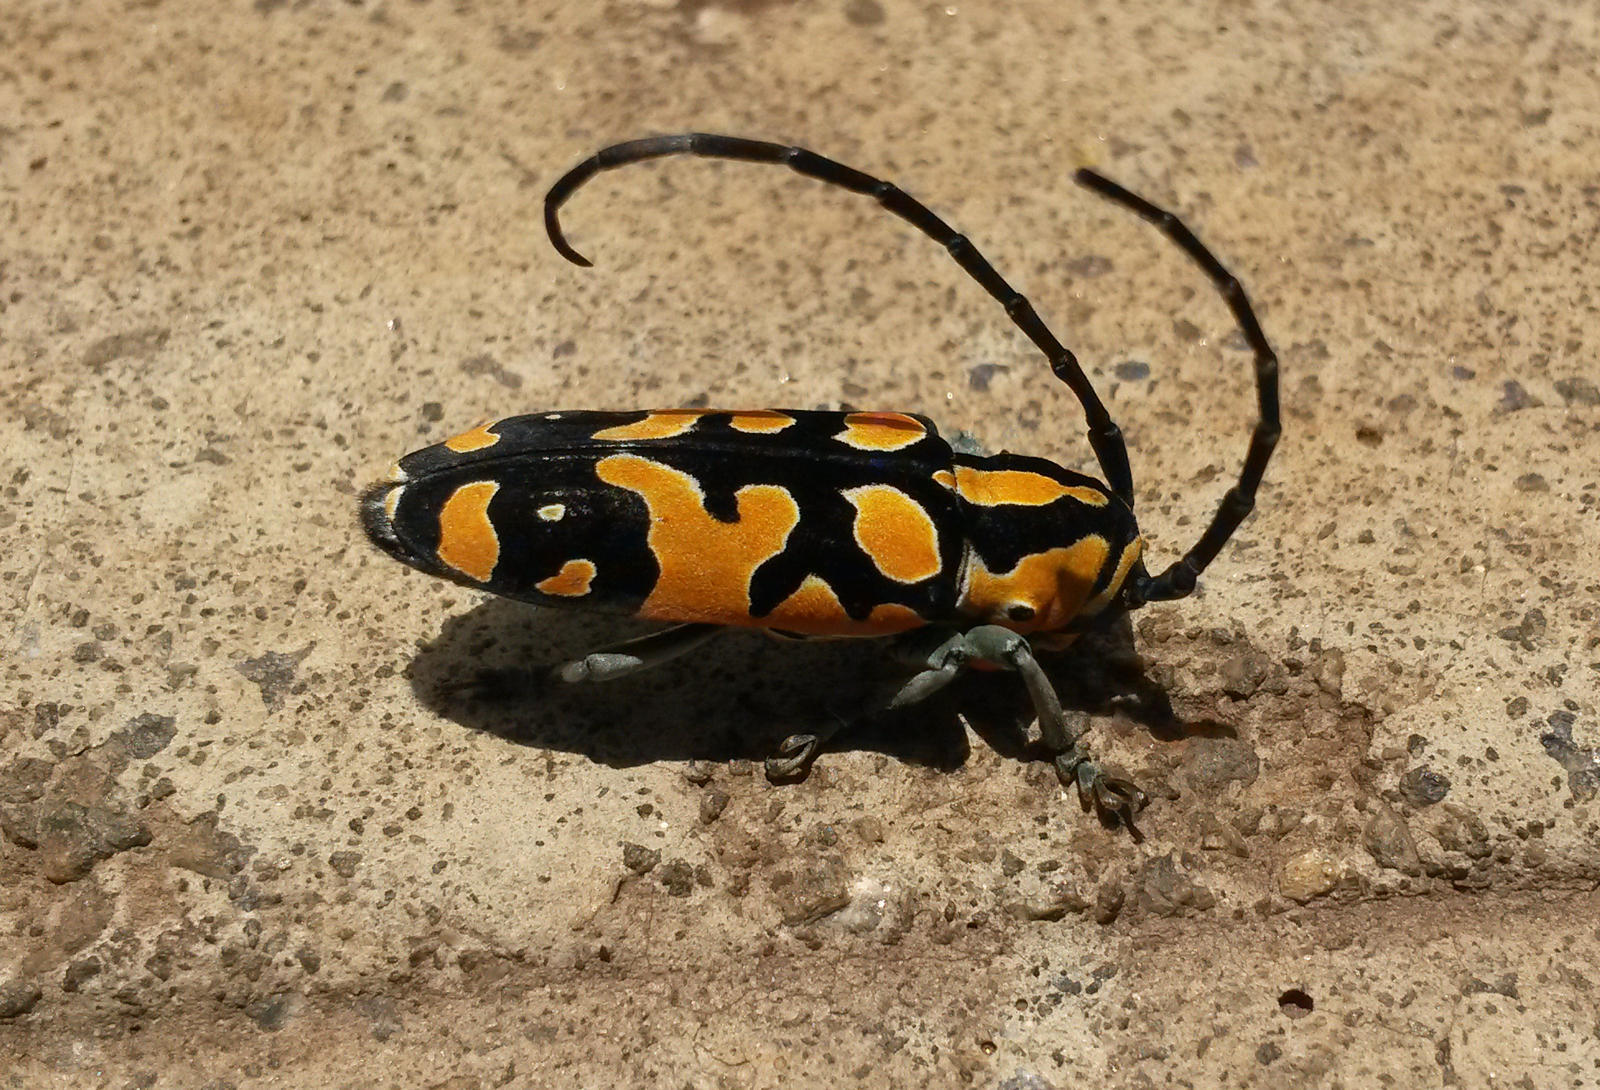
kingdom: Animalia
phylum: Arthropoda
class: Insecta
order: Coleoptera
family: Cerambycidae
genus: Tragocephala
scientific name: Tragocephala variegata
